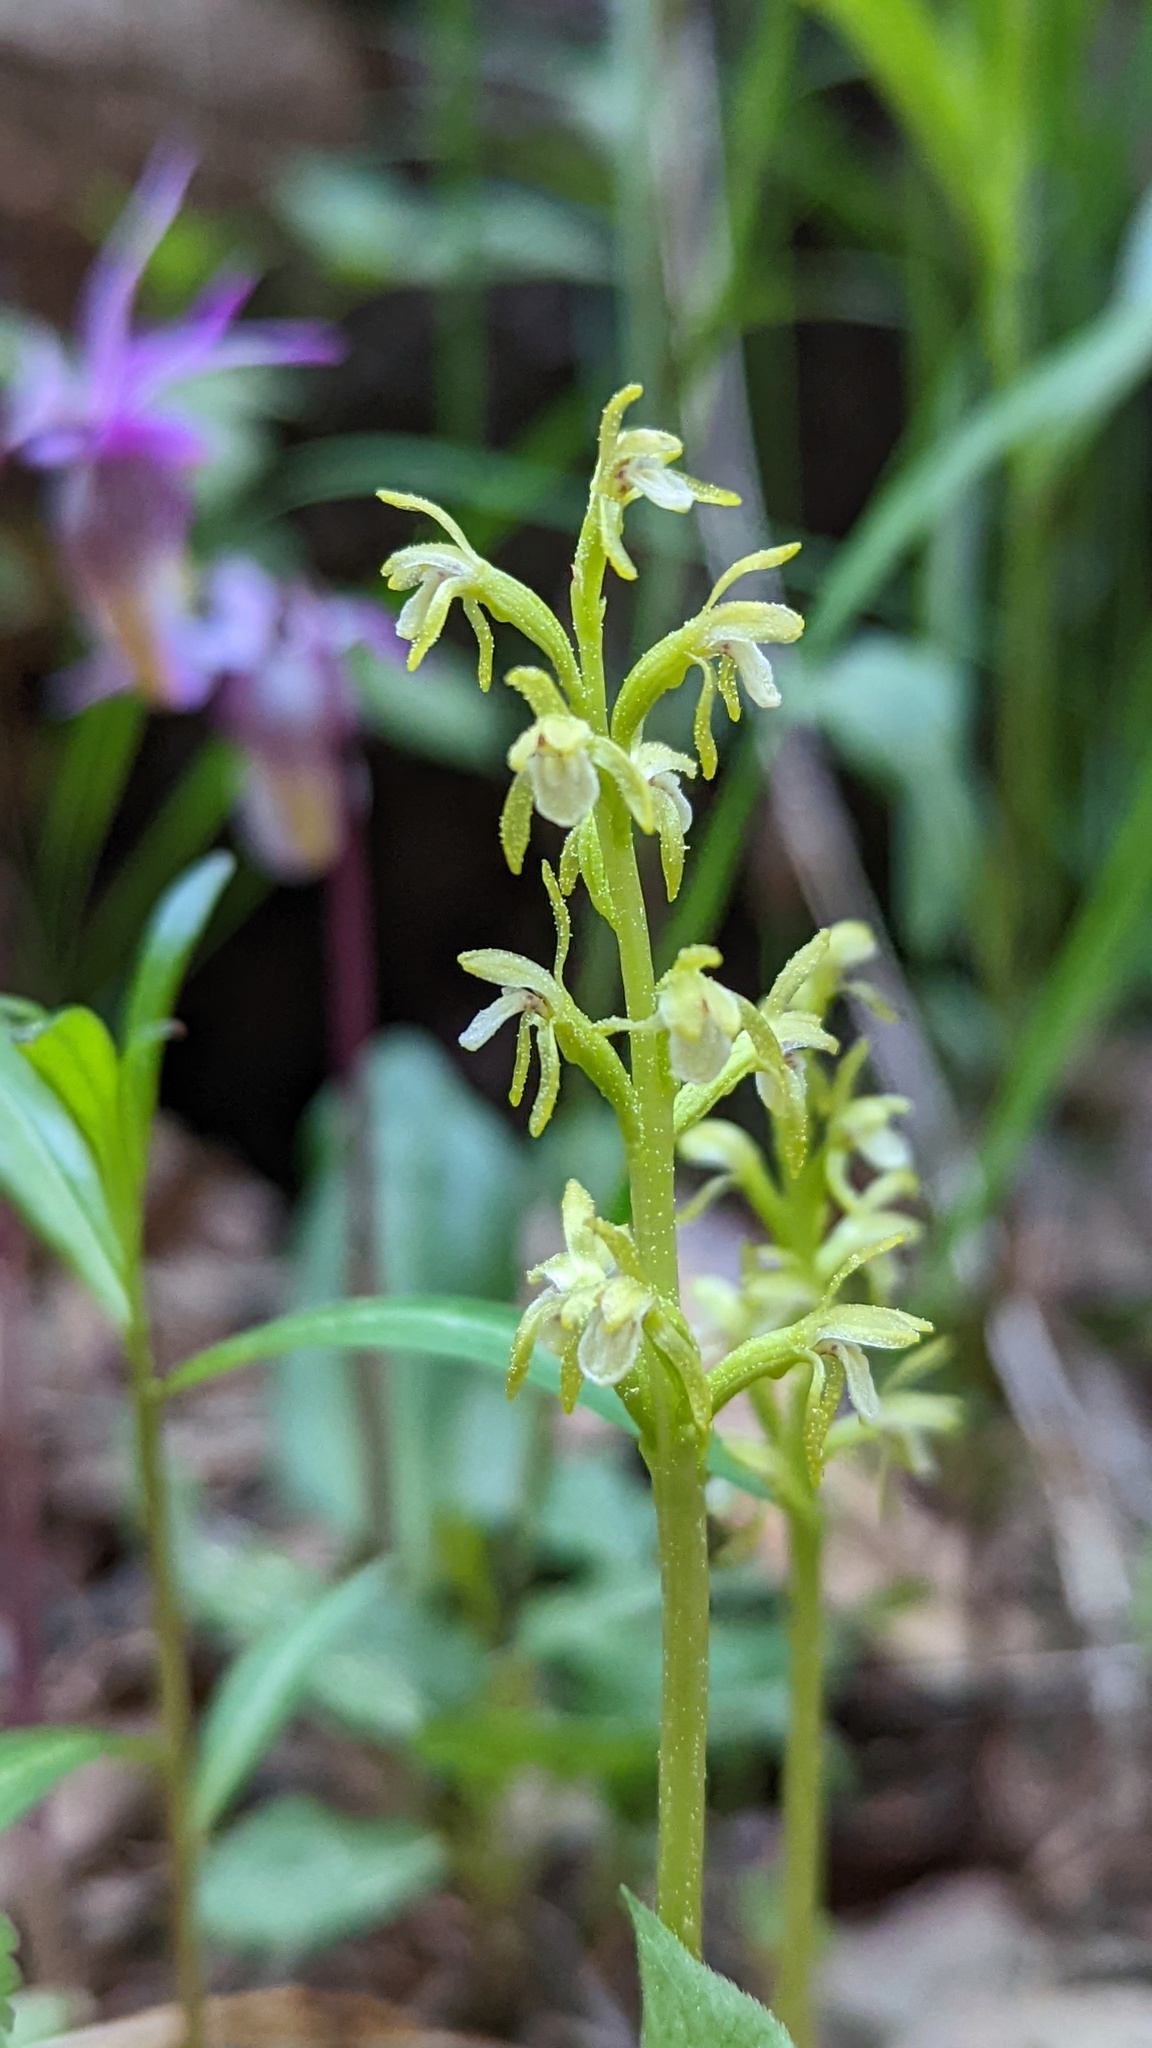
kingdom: Plantae
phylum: Tracheophyta
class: Liliopsida
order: Asparagales
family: Orchidaceae
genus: Corallorhiza
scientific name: Corallorhiza trifida
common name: Yellow coralroot
